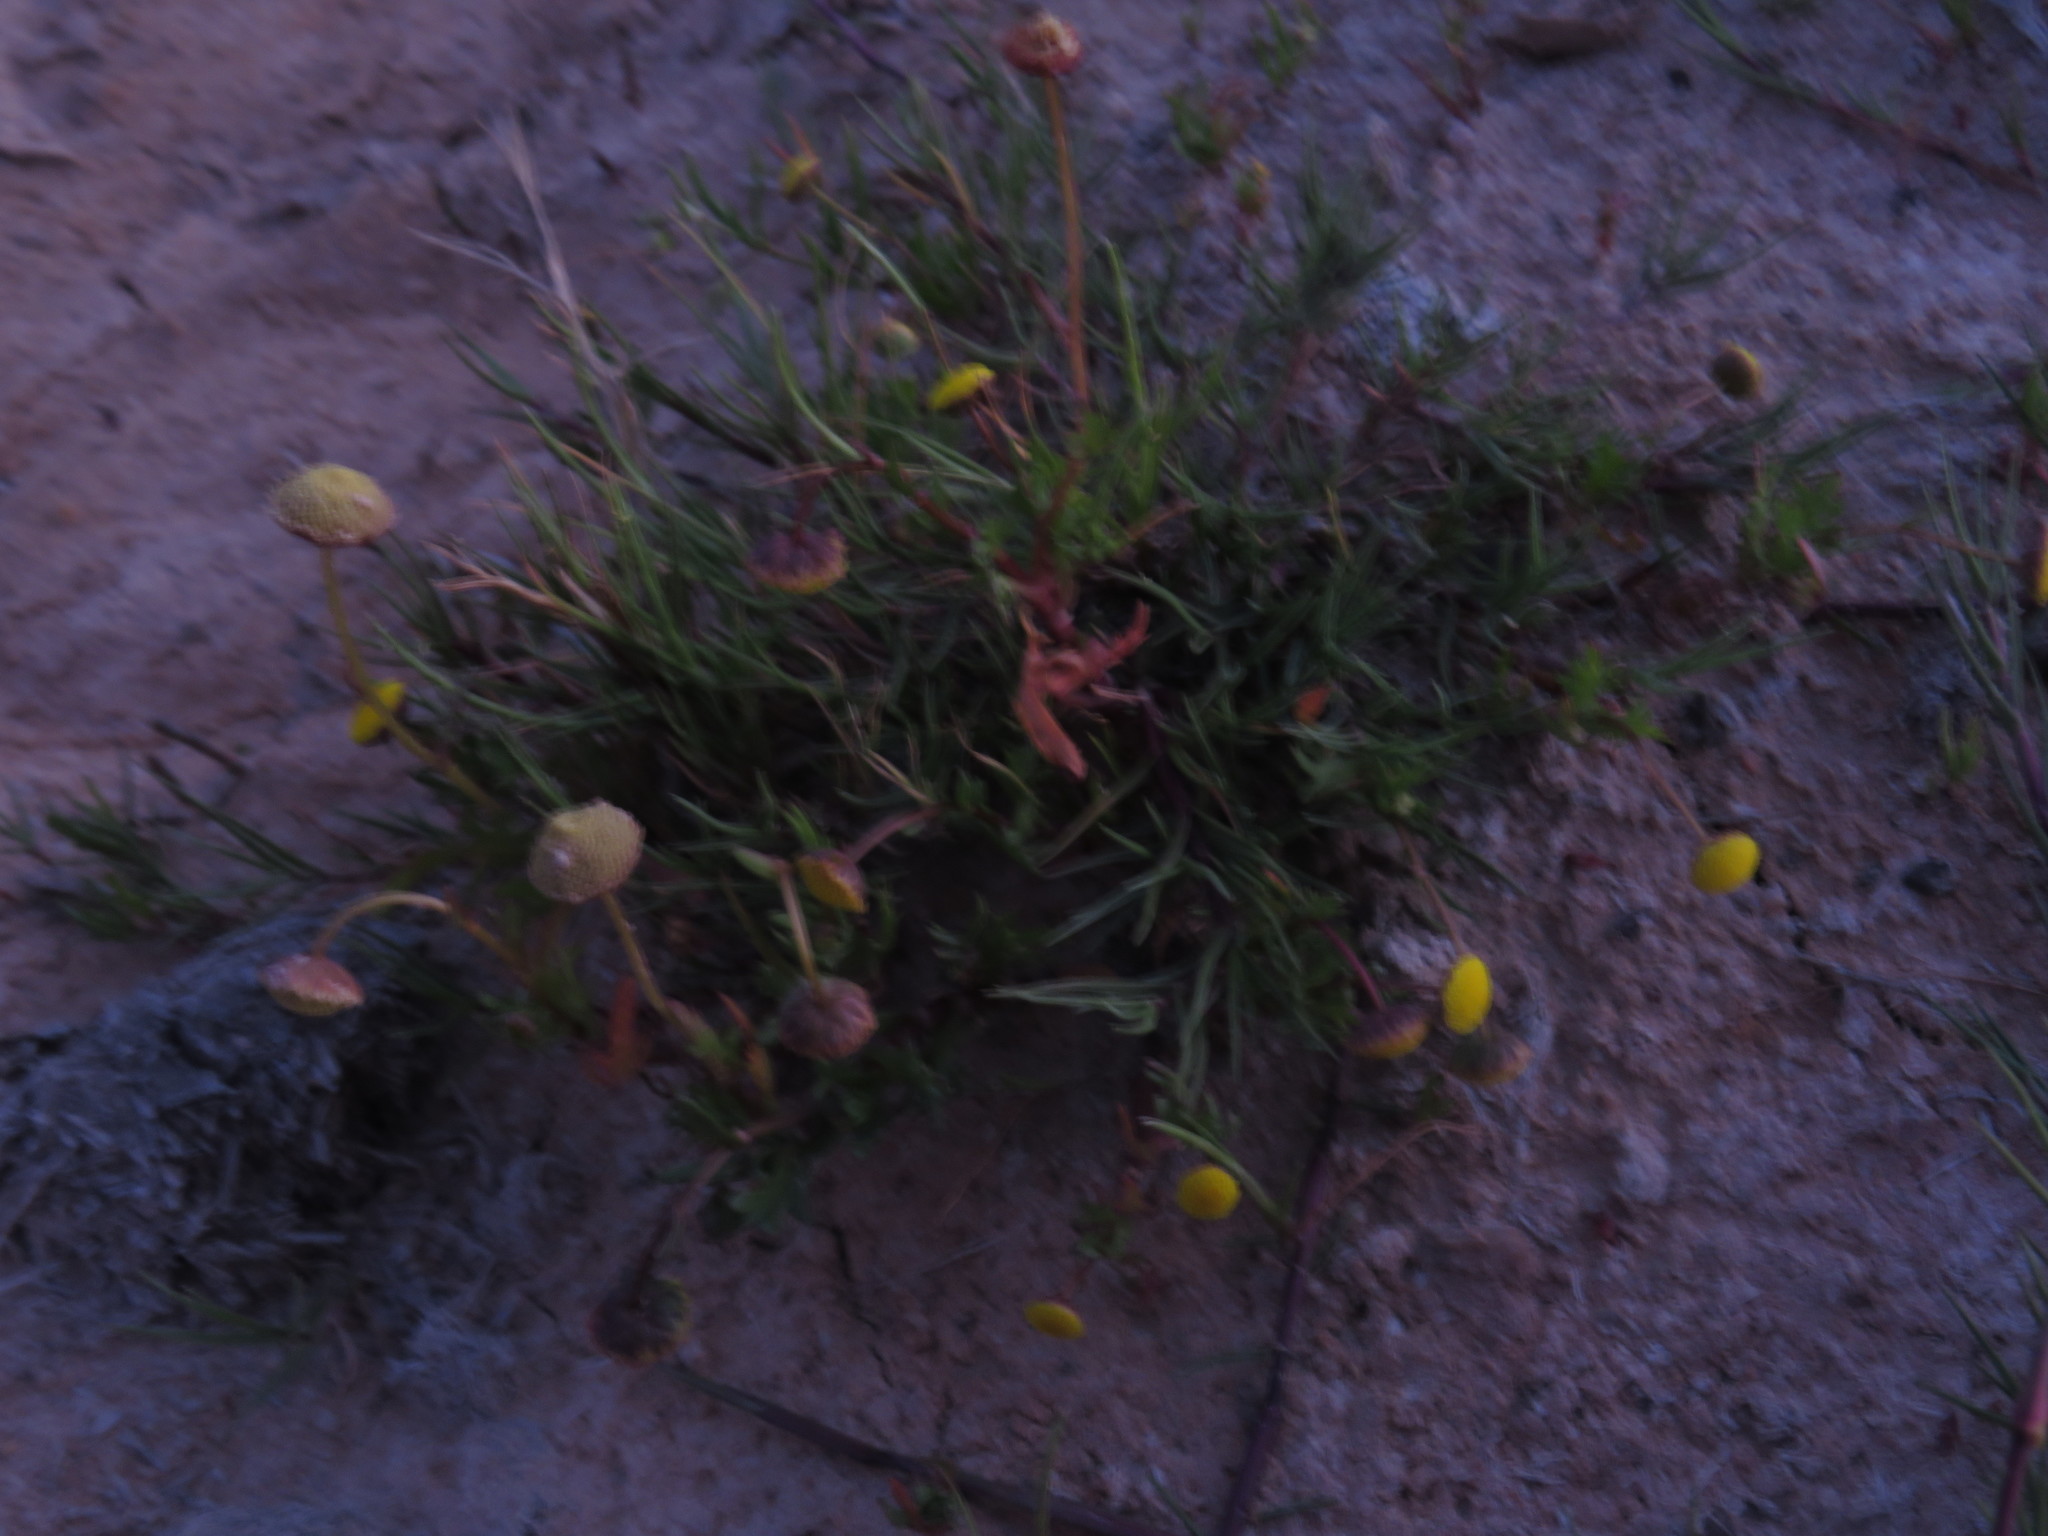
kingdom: Plantae
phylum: Tracheophyta
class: Magnoliopsida
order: Asterales
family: Asteraceae
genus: Cotula
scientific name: Cotula coronopifolia
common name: Buttonweed
